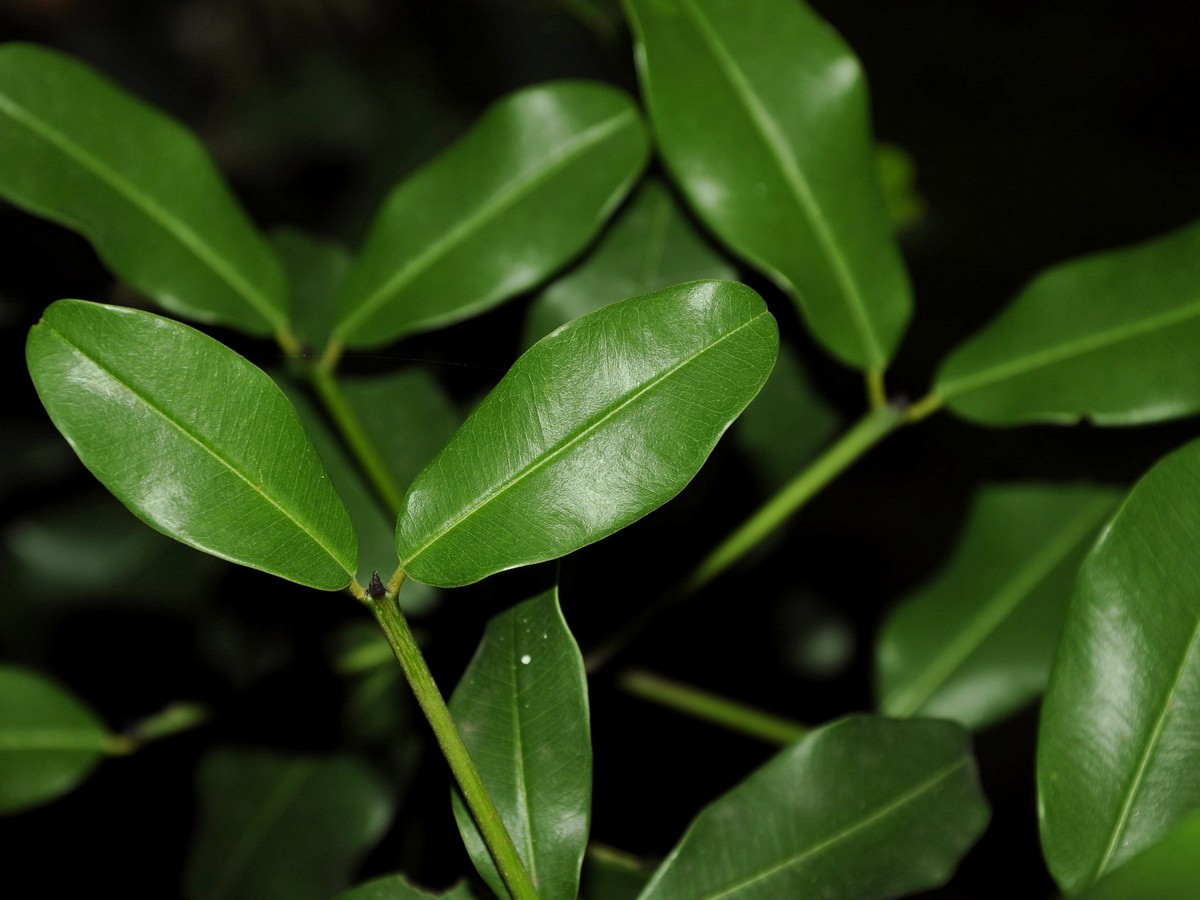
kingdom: Plantae
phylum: Tracheophyta
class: Magnoliopsida
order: Malpighiales
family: Malpighiaceae
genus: Malpighia
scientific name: Malpighia glabra
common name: Barbados cherry
